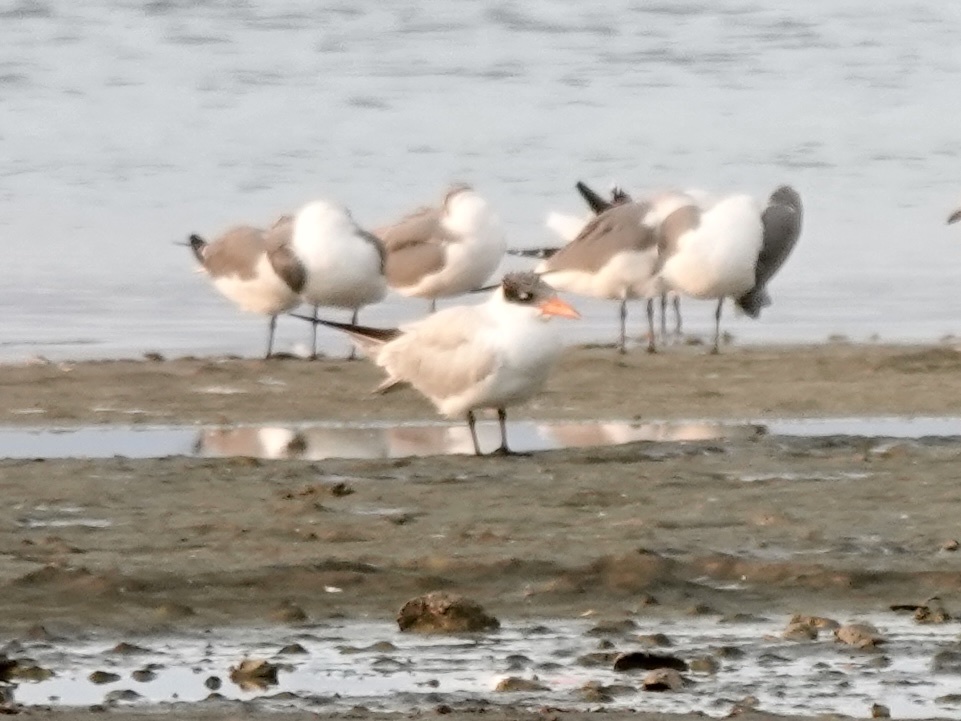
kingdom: Animalia
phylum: Chordata
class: Aves
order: Charadriiformes
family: Laridae
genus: Hydroprogne
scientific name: Hydroprogne caspia
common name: Caspian tern
